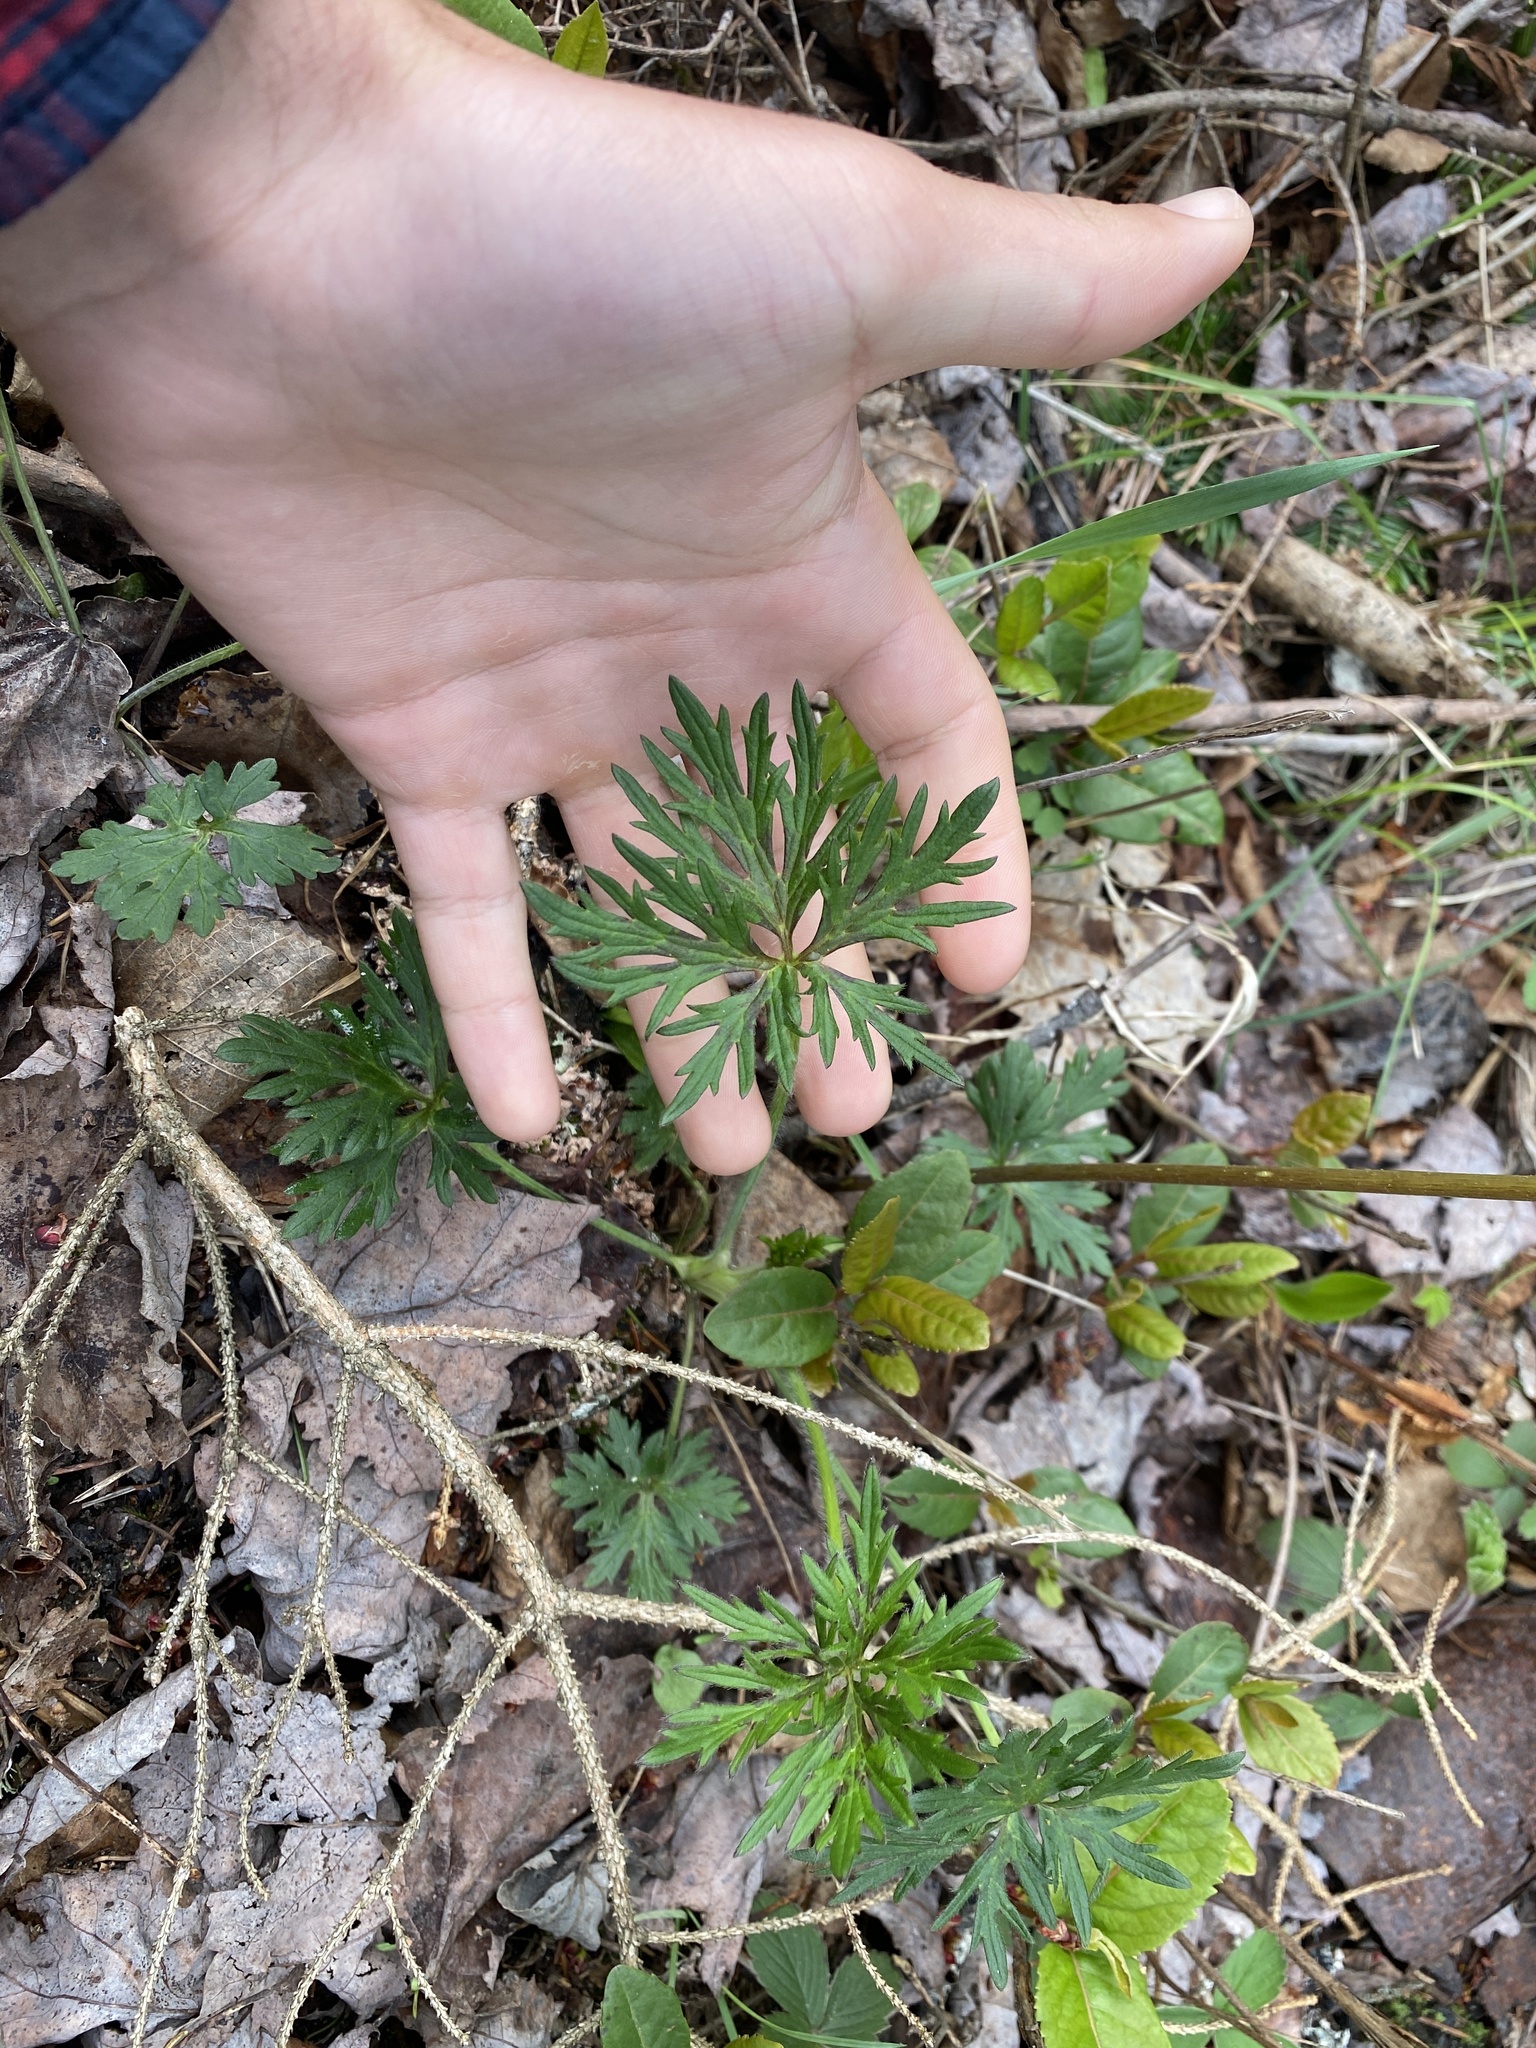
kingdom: Plantae
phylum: Tracheophyta
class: Magnoliopsida
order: Ranunculales
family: Ranunculaceae
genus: Ranunculus
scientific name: Ranunculus acris
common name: Meadow buttercup
